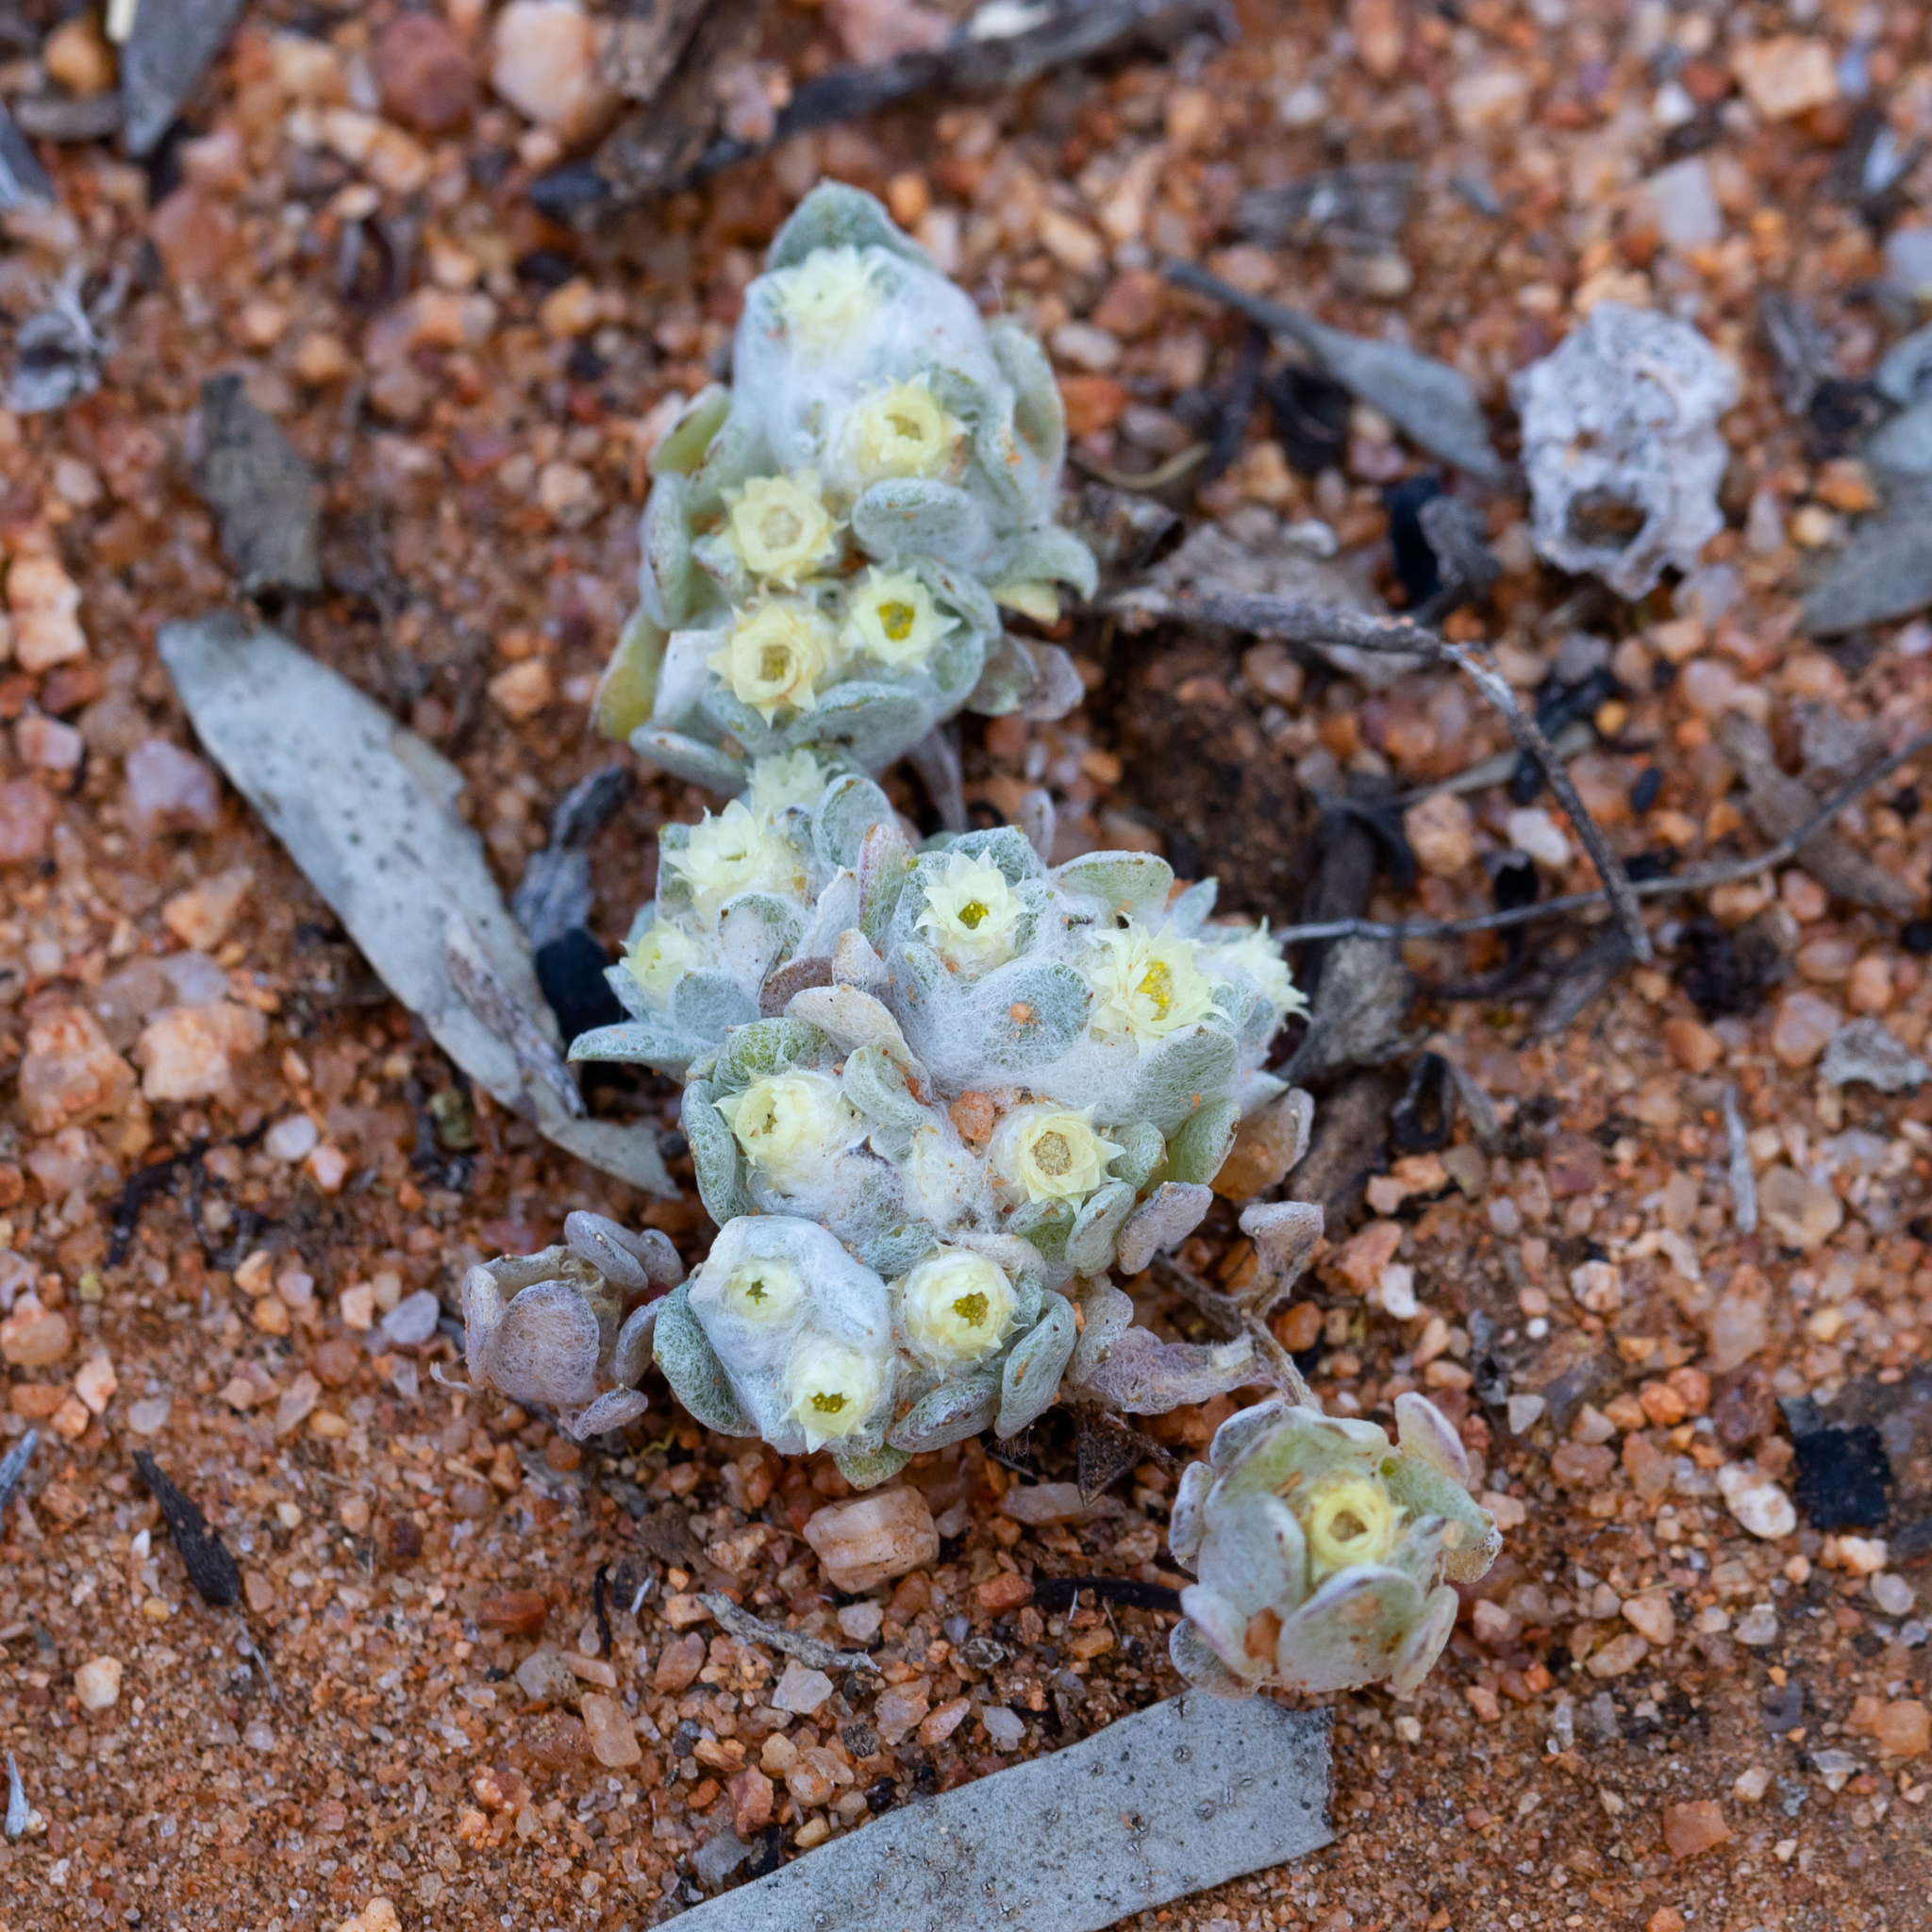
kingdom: Plantae
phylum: Tracheophyta
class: Magnoliopsida
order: Asterales
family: Asteraceae
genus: Actinobole
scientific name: Actinobole uliginosum
